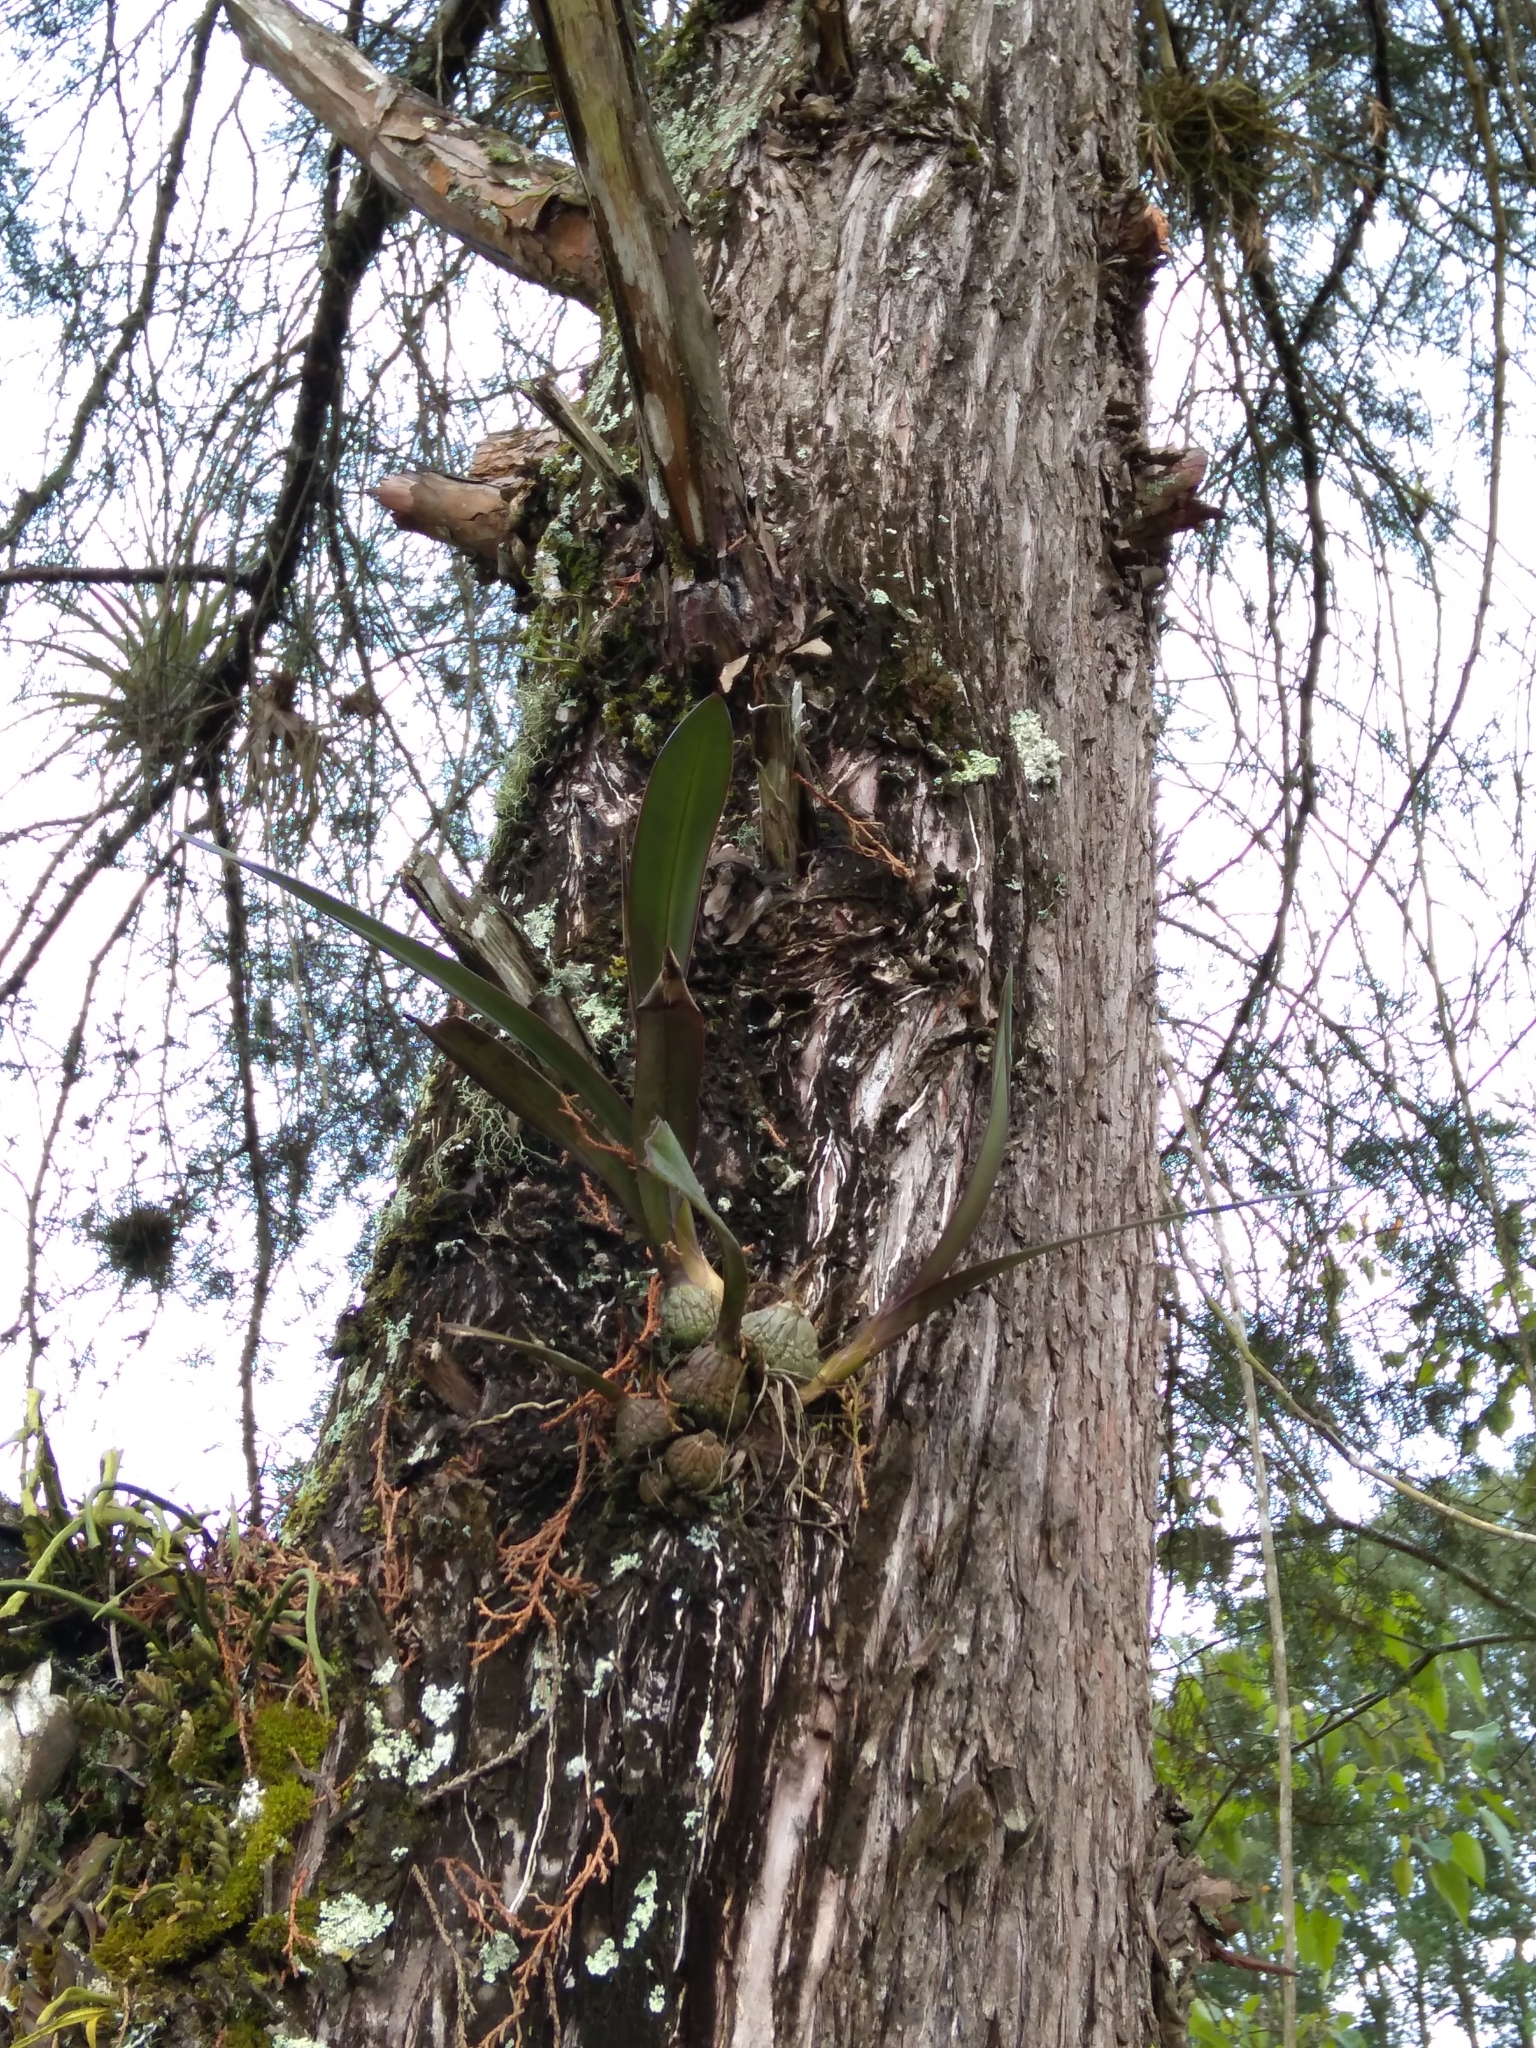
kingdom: Plantae
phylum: Tracheophyta
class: Liliopsida
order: Asparagales
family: Orchidaceae
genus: Encyclia
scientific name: Encyclia candollei
